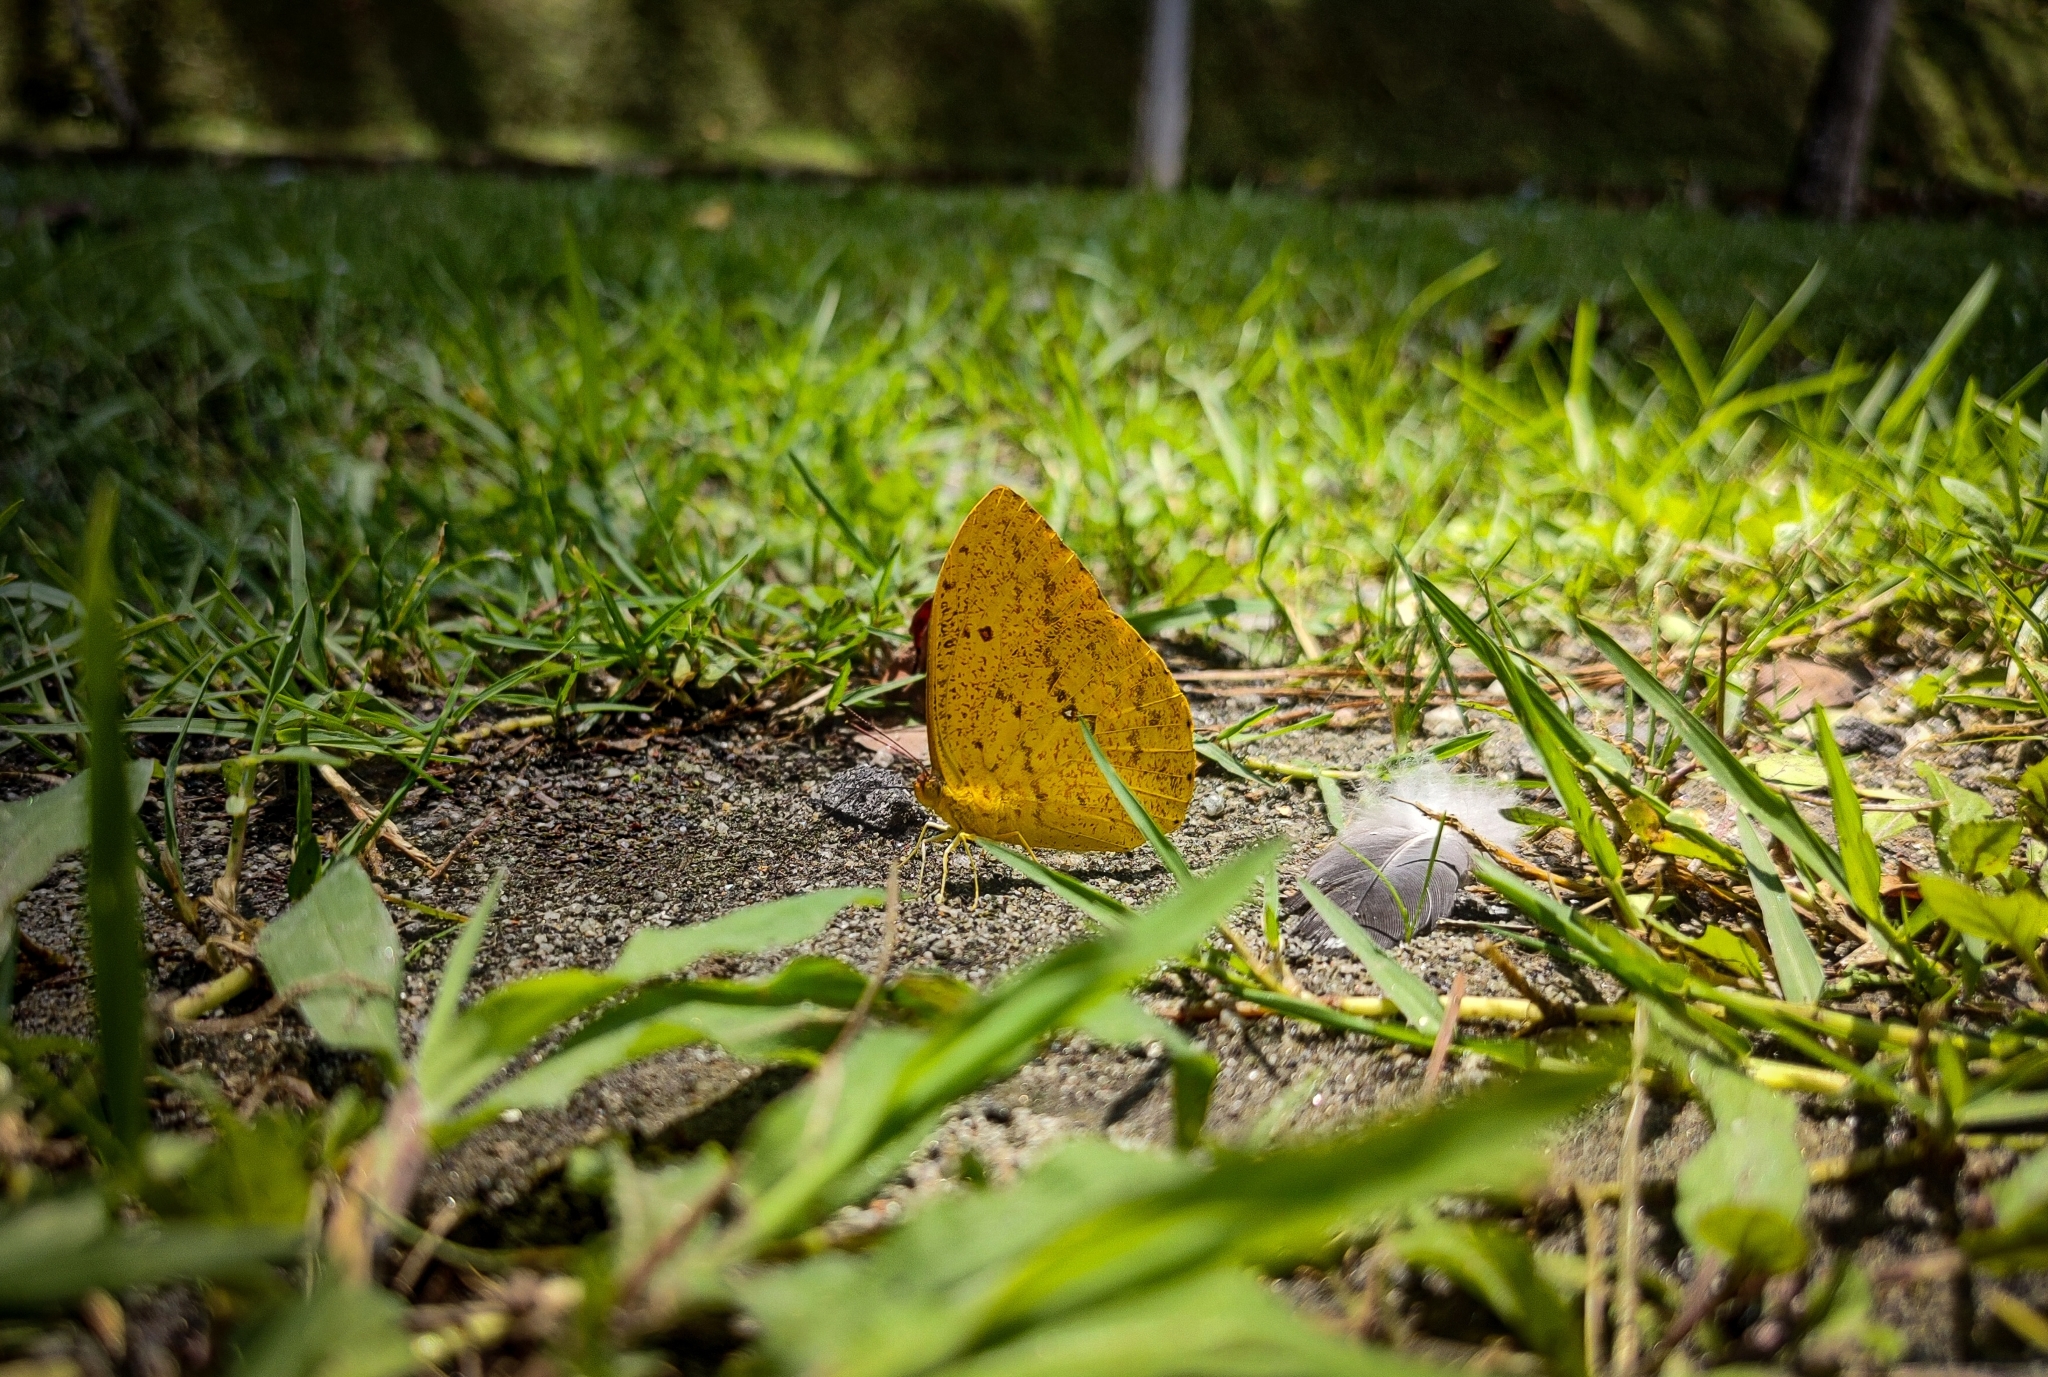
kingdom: Animalia
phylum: Arthropoda
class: Insecta
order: Lepidoptera
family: Pieridae
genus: Phoebis
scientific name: Phoebis argante
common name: Apricot sulphur
